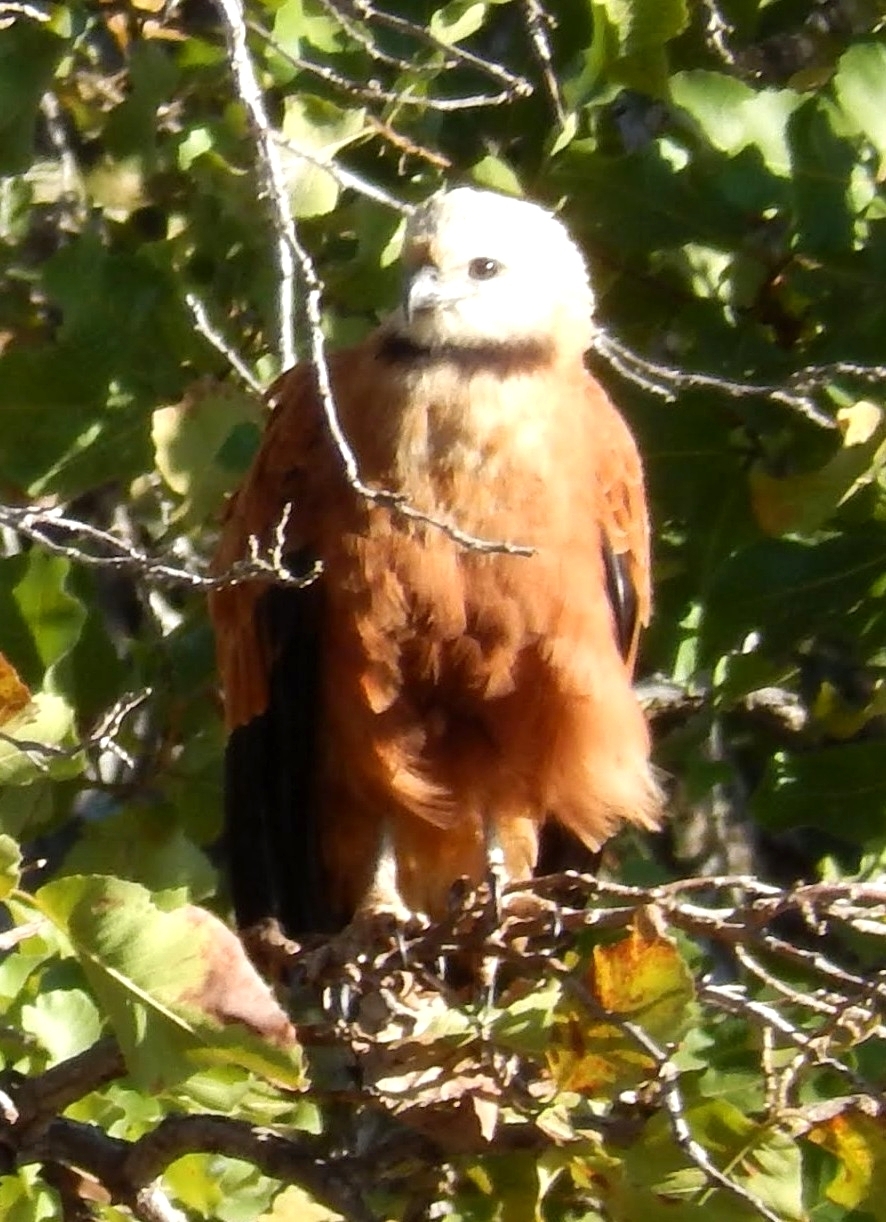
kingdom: Animalia
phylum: Chordata
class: Aves
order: Accipitriformes
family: Accipitridae
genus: Busarellus
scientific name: Busarellus nigricollis
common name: Black-collared hawk
